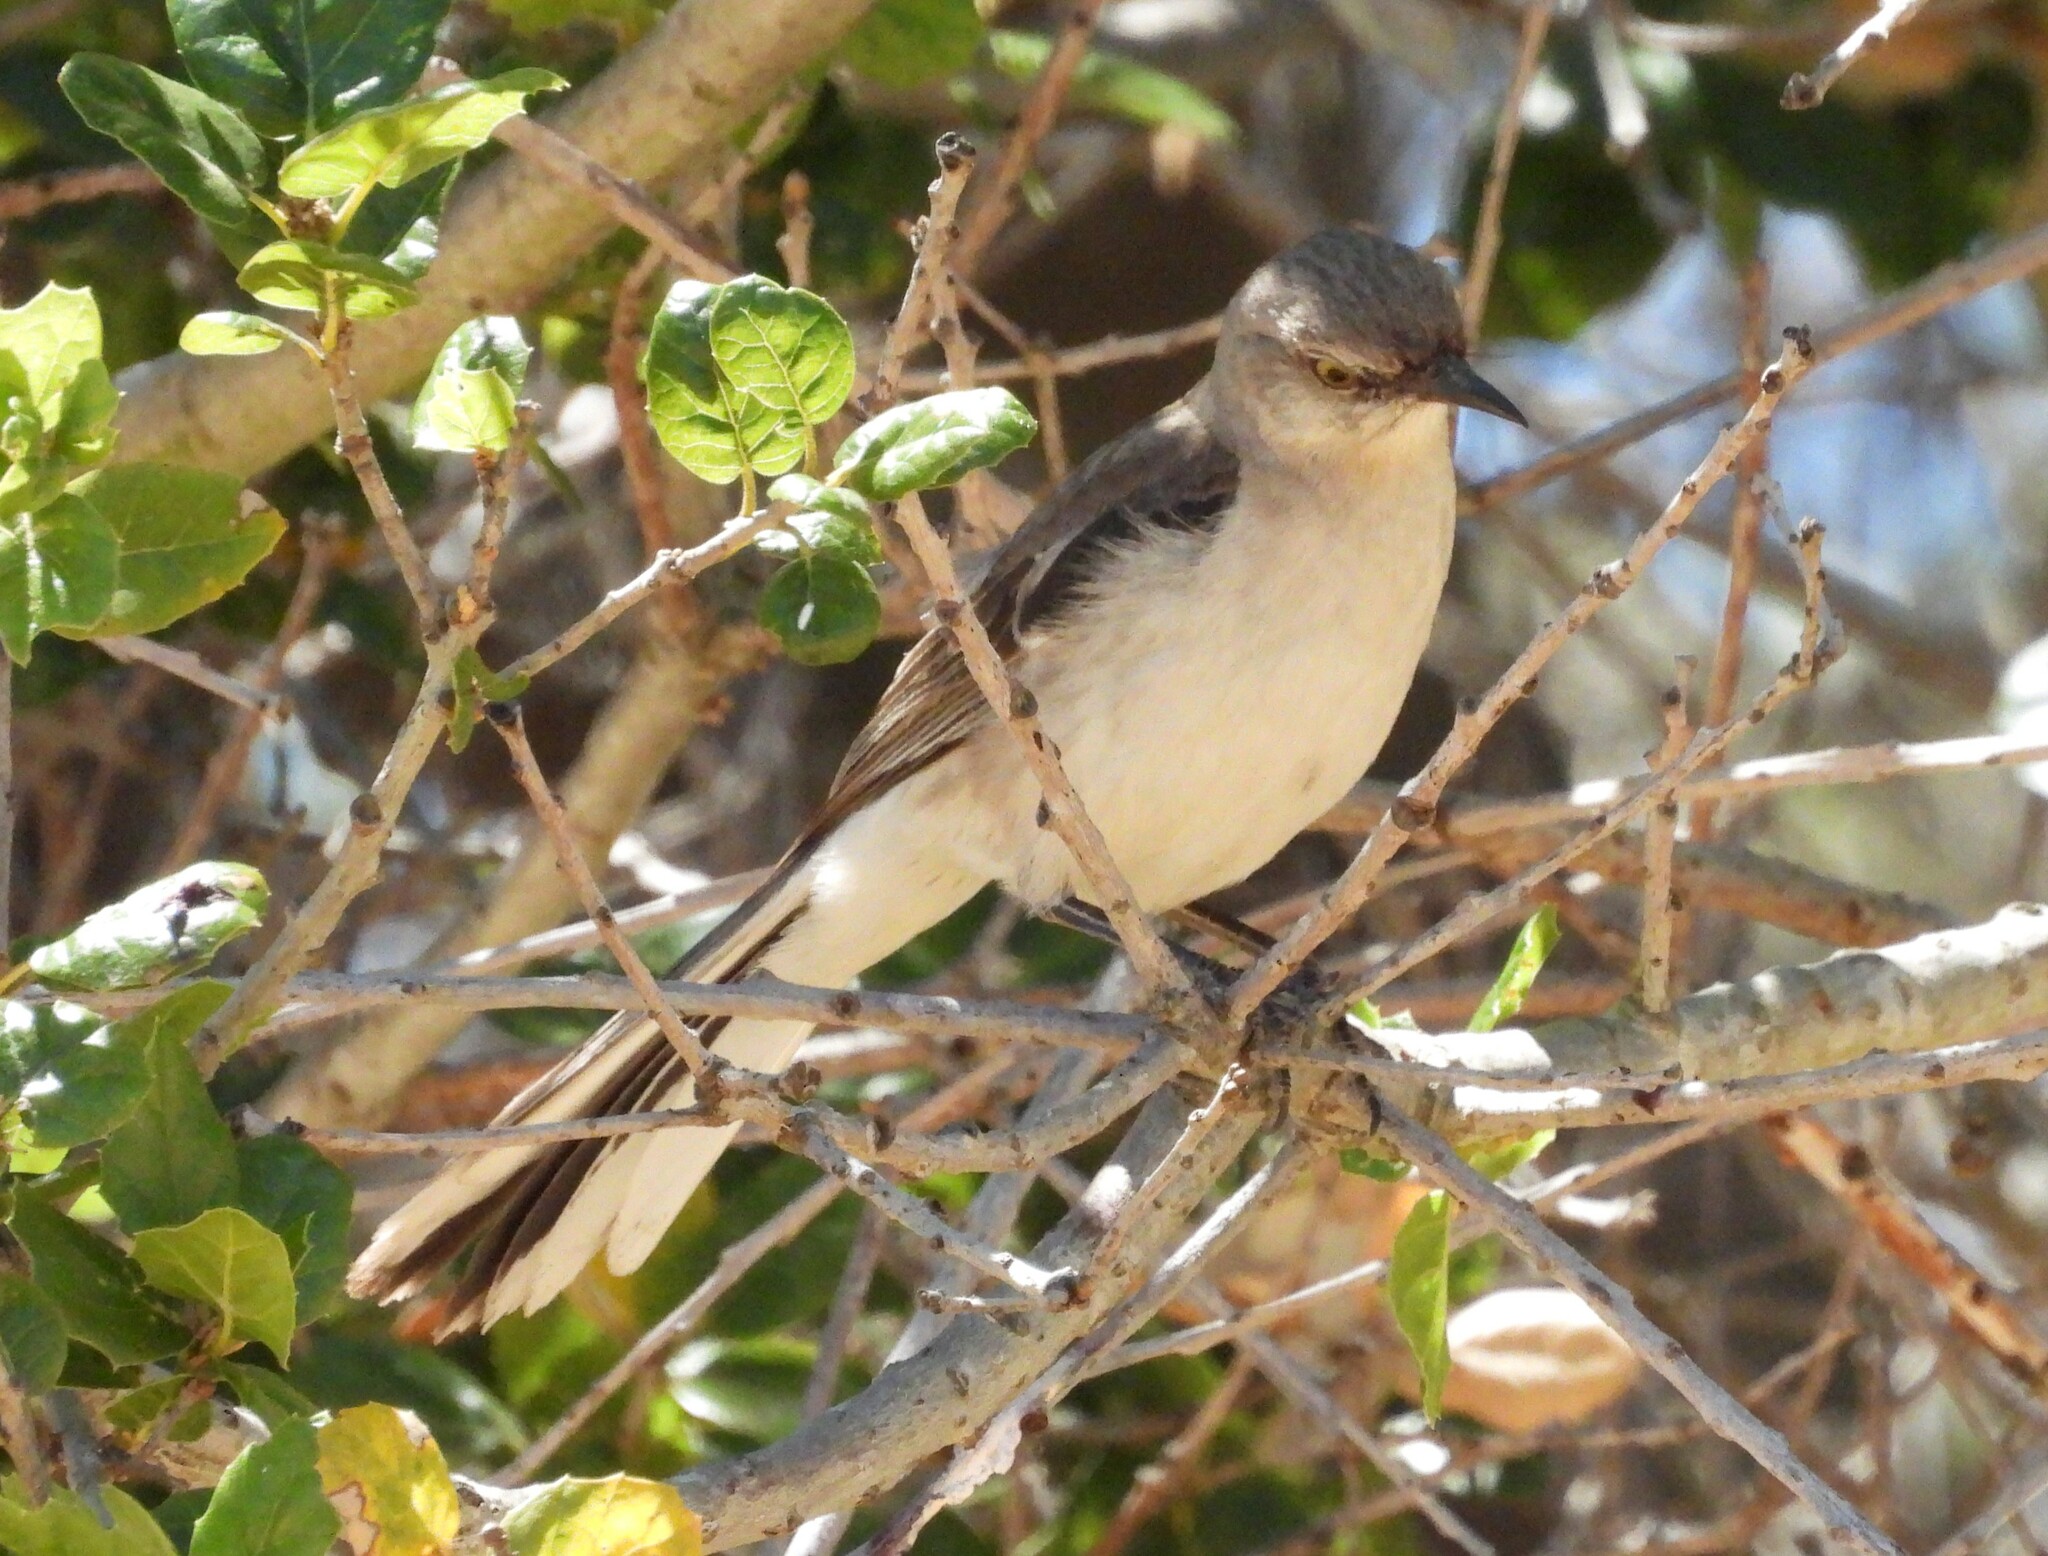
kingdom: Animalia
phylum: Chordata
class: Aves
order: Passeriformes
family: Mimidae
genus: Mimus
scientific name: Mimus polyglottos
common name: Northern mockingbird
